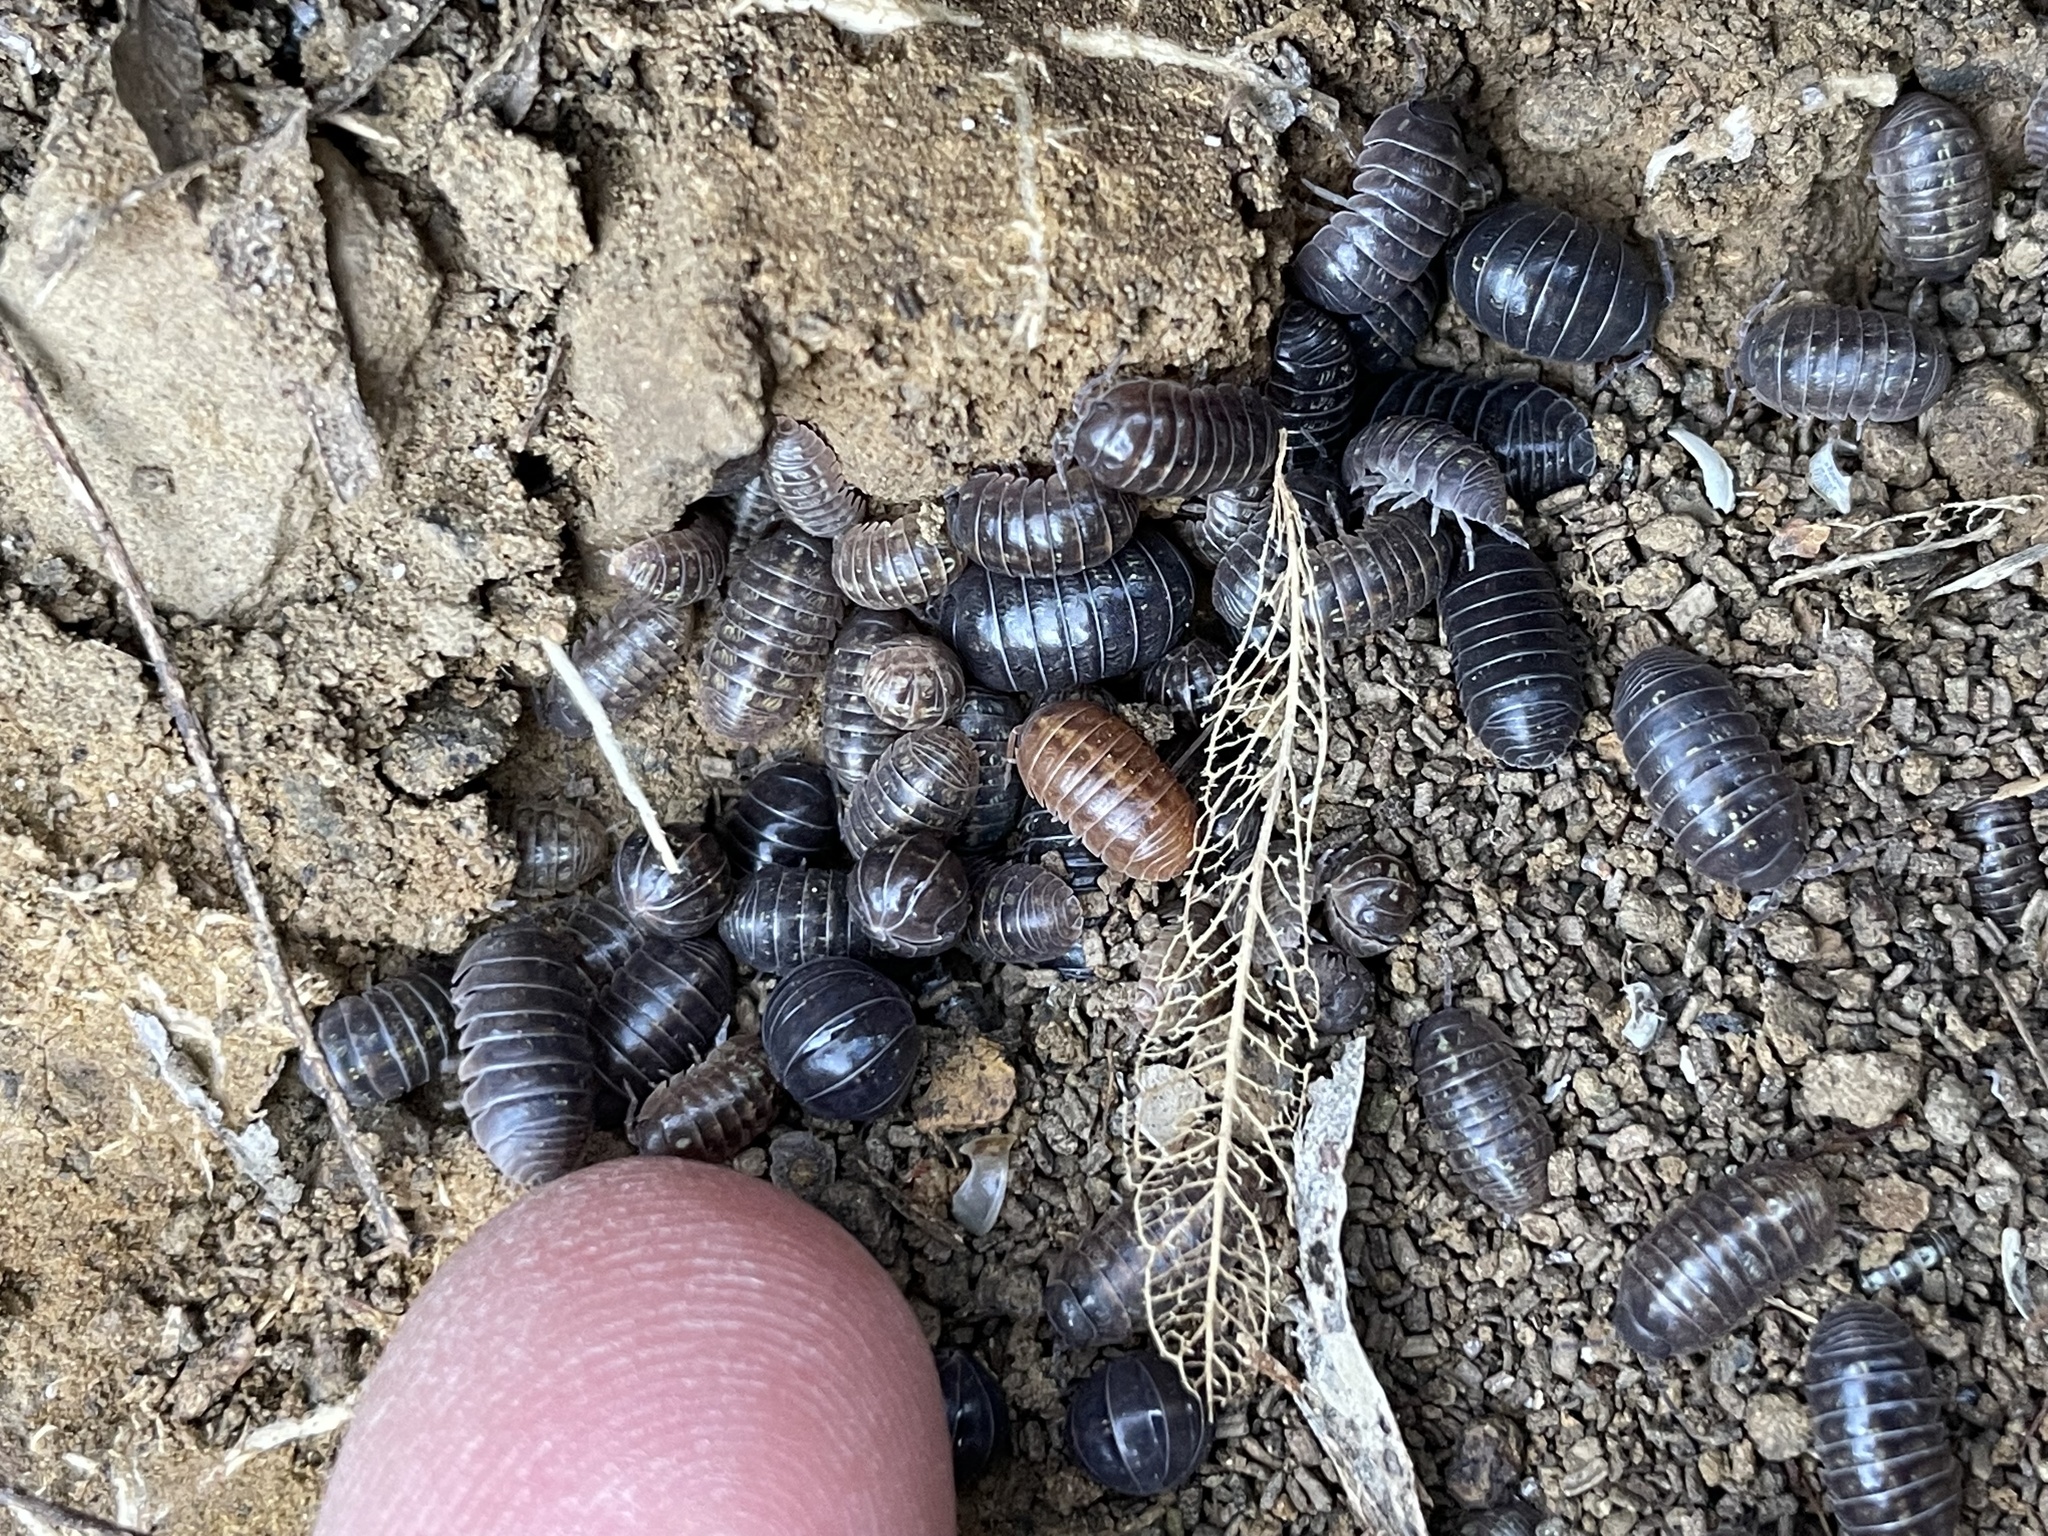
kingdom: Animalia
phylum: Arthropoda
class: Malacostraca
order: Isopoda
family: Armadillidiidae
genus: Armadillidium
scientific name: Armadillidium vulgare
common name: Common pill woodlouse
